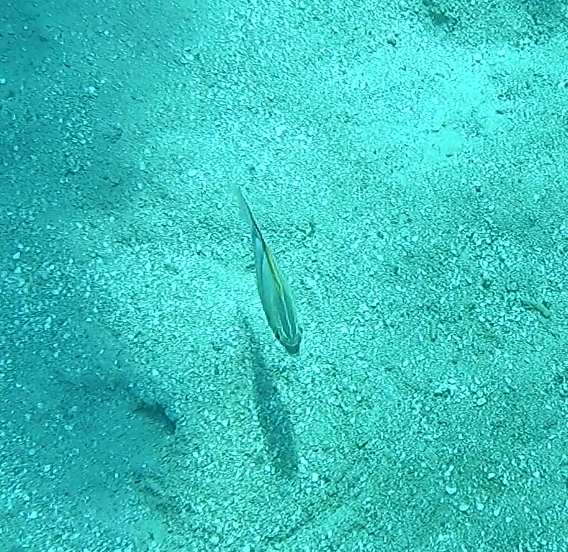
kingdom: Animalia
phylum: Chordata
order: Perciformes
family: Nemipteridae
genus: Scolopsis
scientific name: Scolopsis bilineata
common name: Two-lined monocle bream
